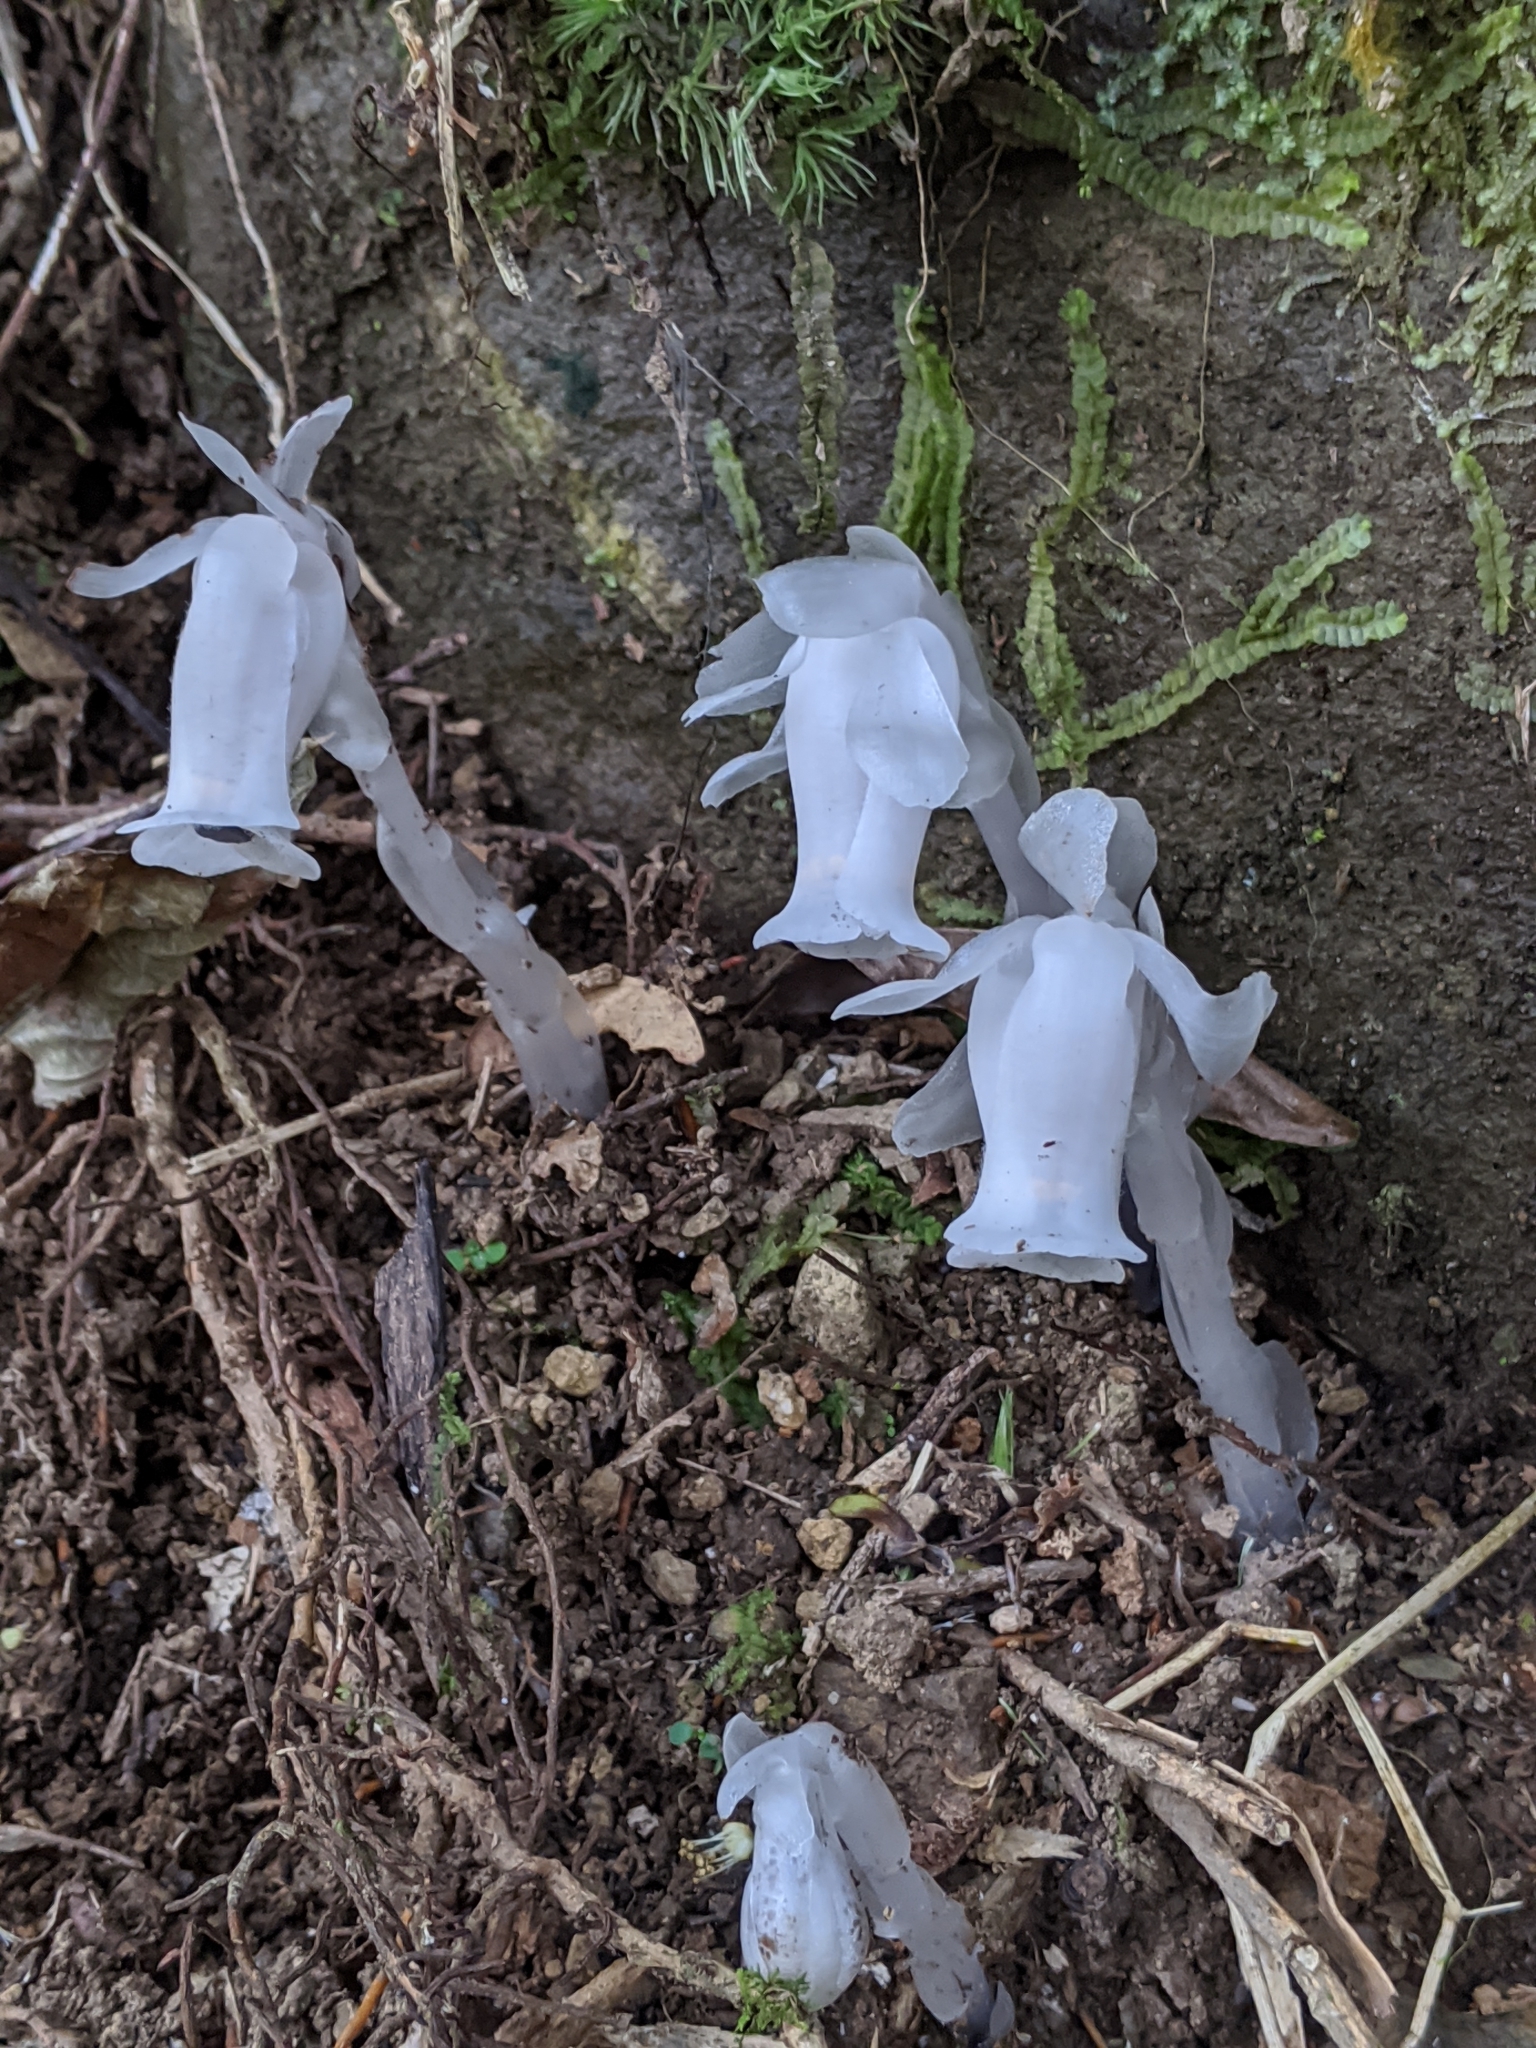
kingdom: Plantae
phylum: Tracheophyta
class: Magnoliopsida
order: Ericales
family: Ericaceae
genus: Monotropastrum
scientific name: Monotropastrum humile
